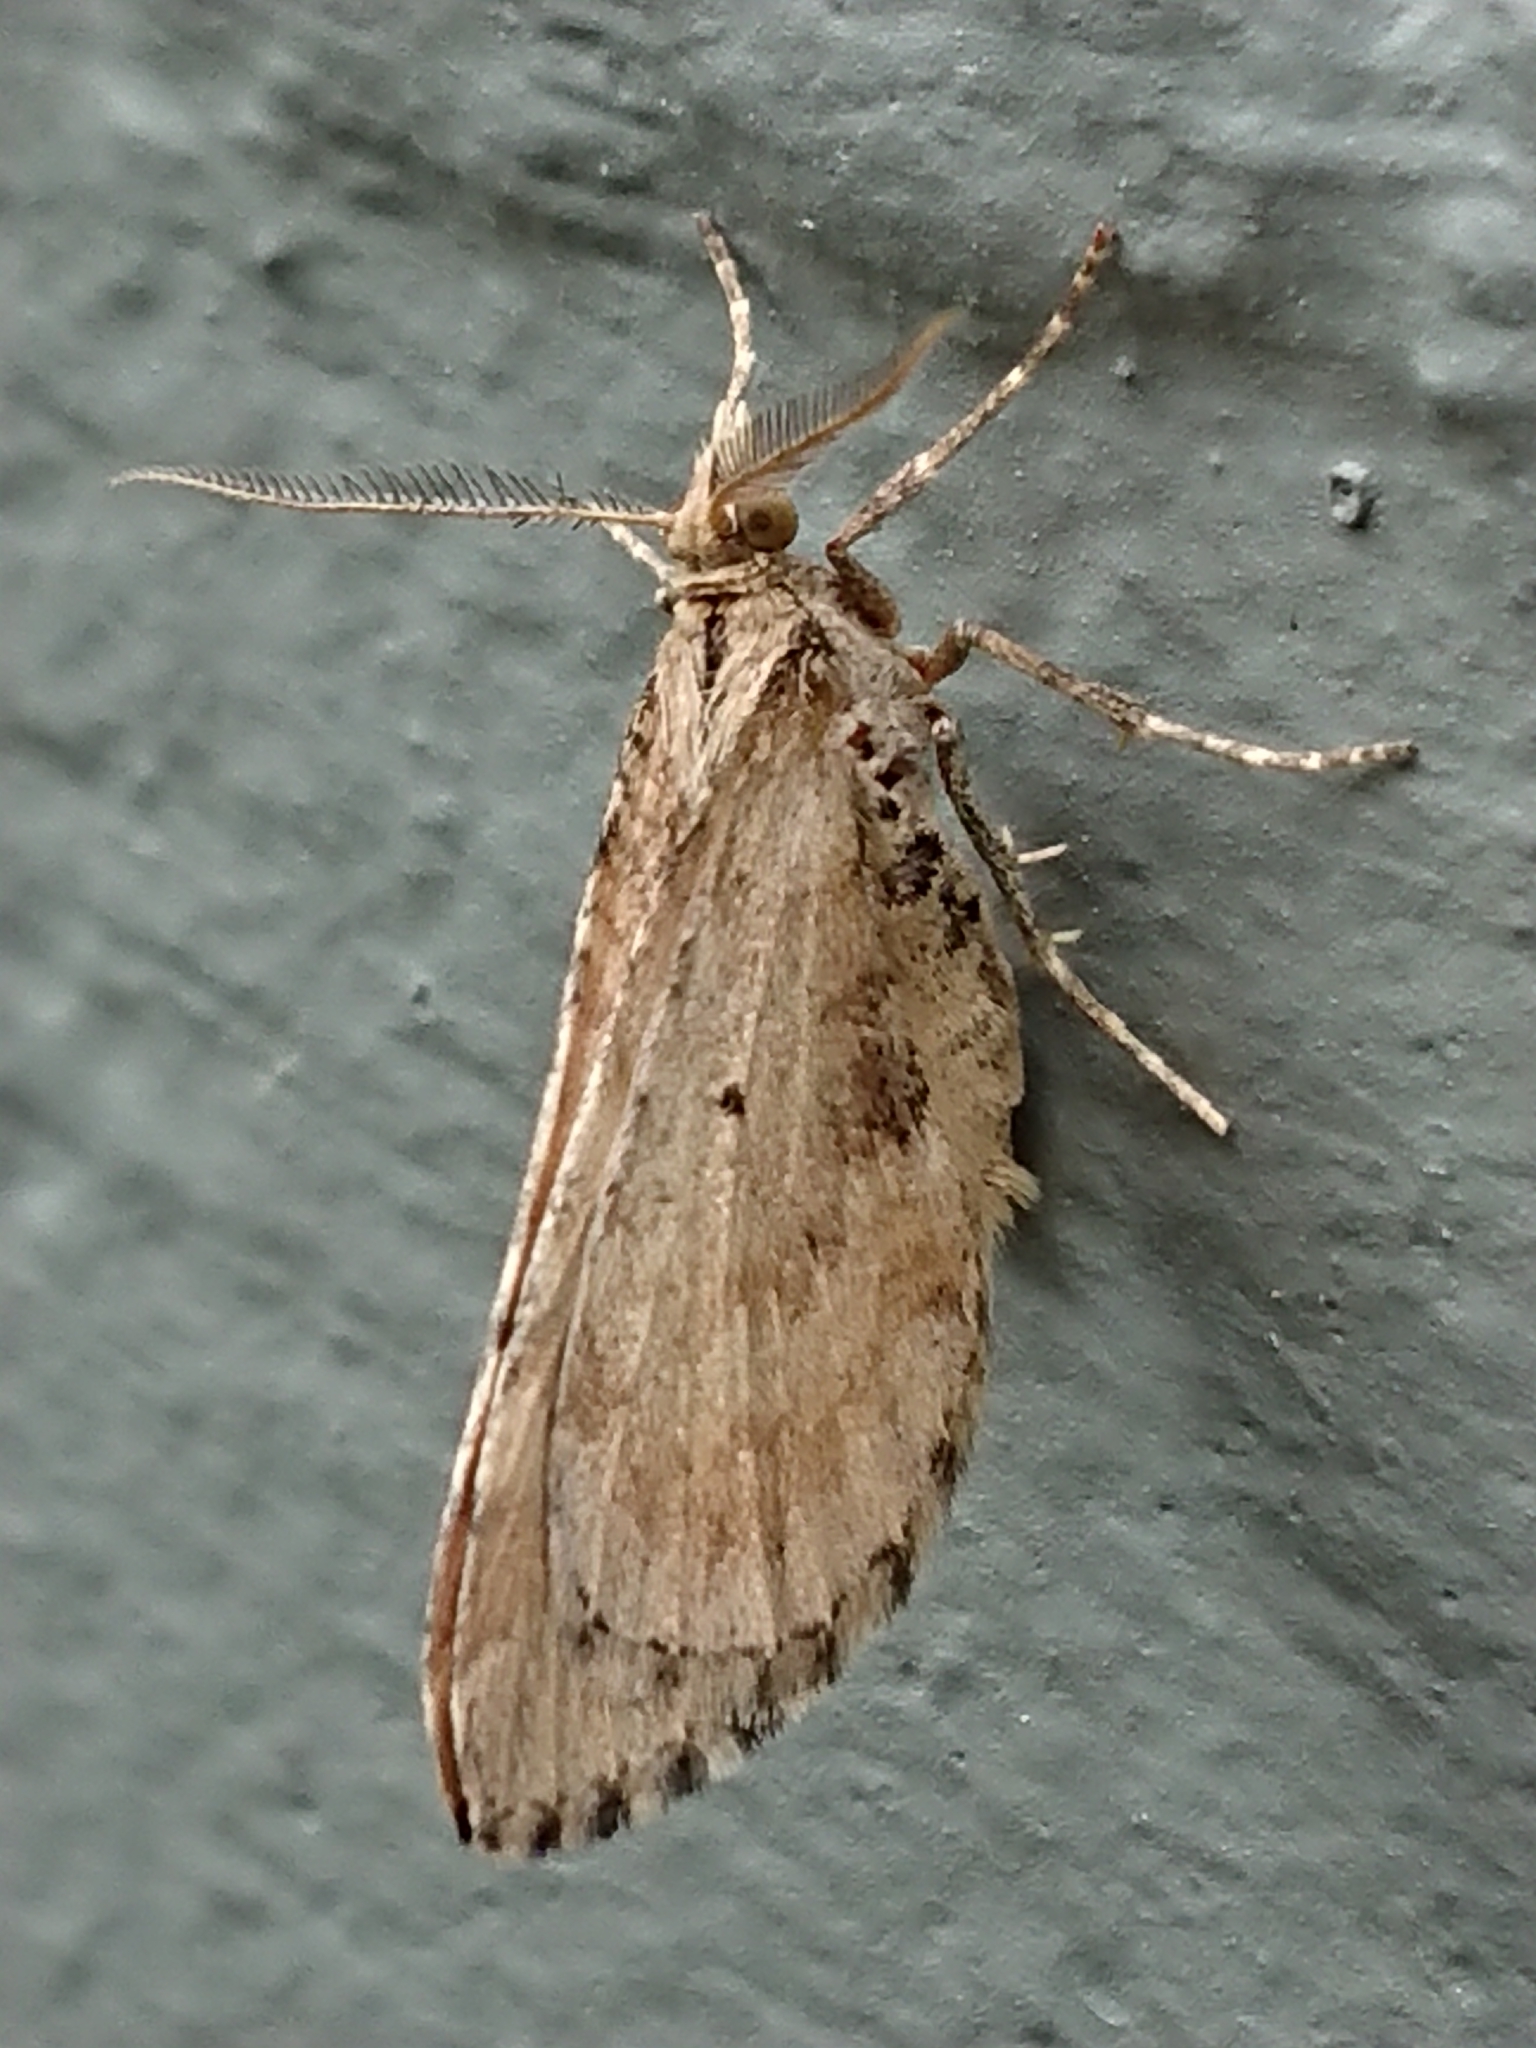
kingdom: Animalia
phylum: Arthropoda
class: Insecta
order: Lepidoptera
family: Geometridae
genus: Asaphodes
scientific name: Asaphodes aegrota
